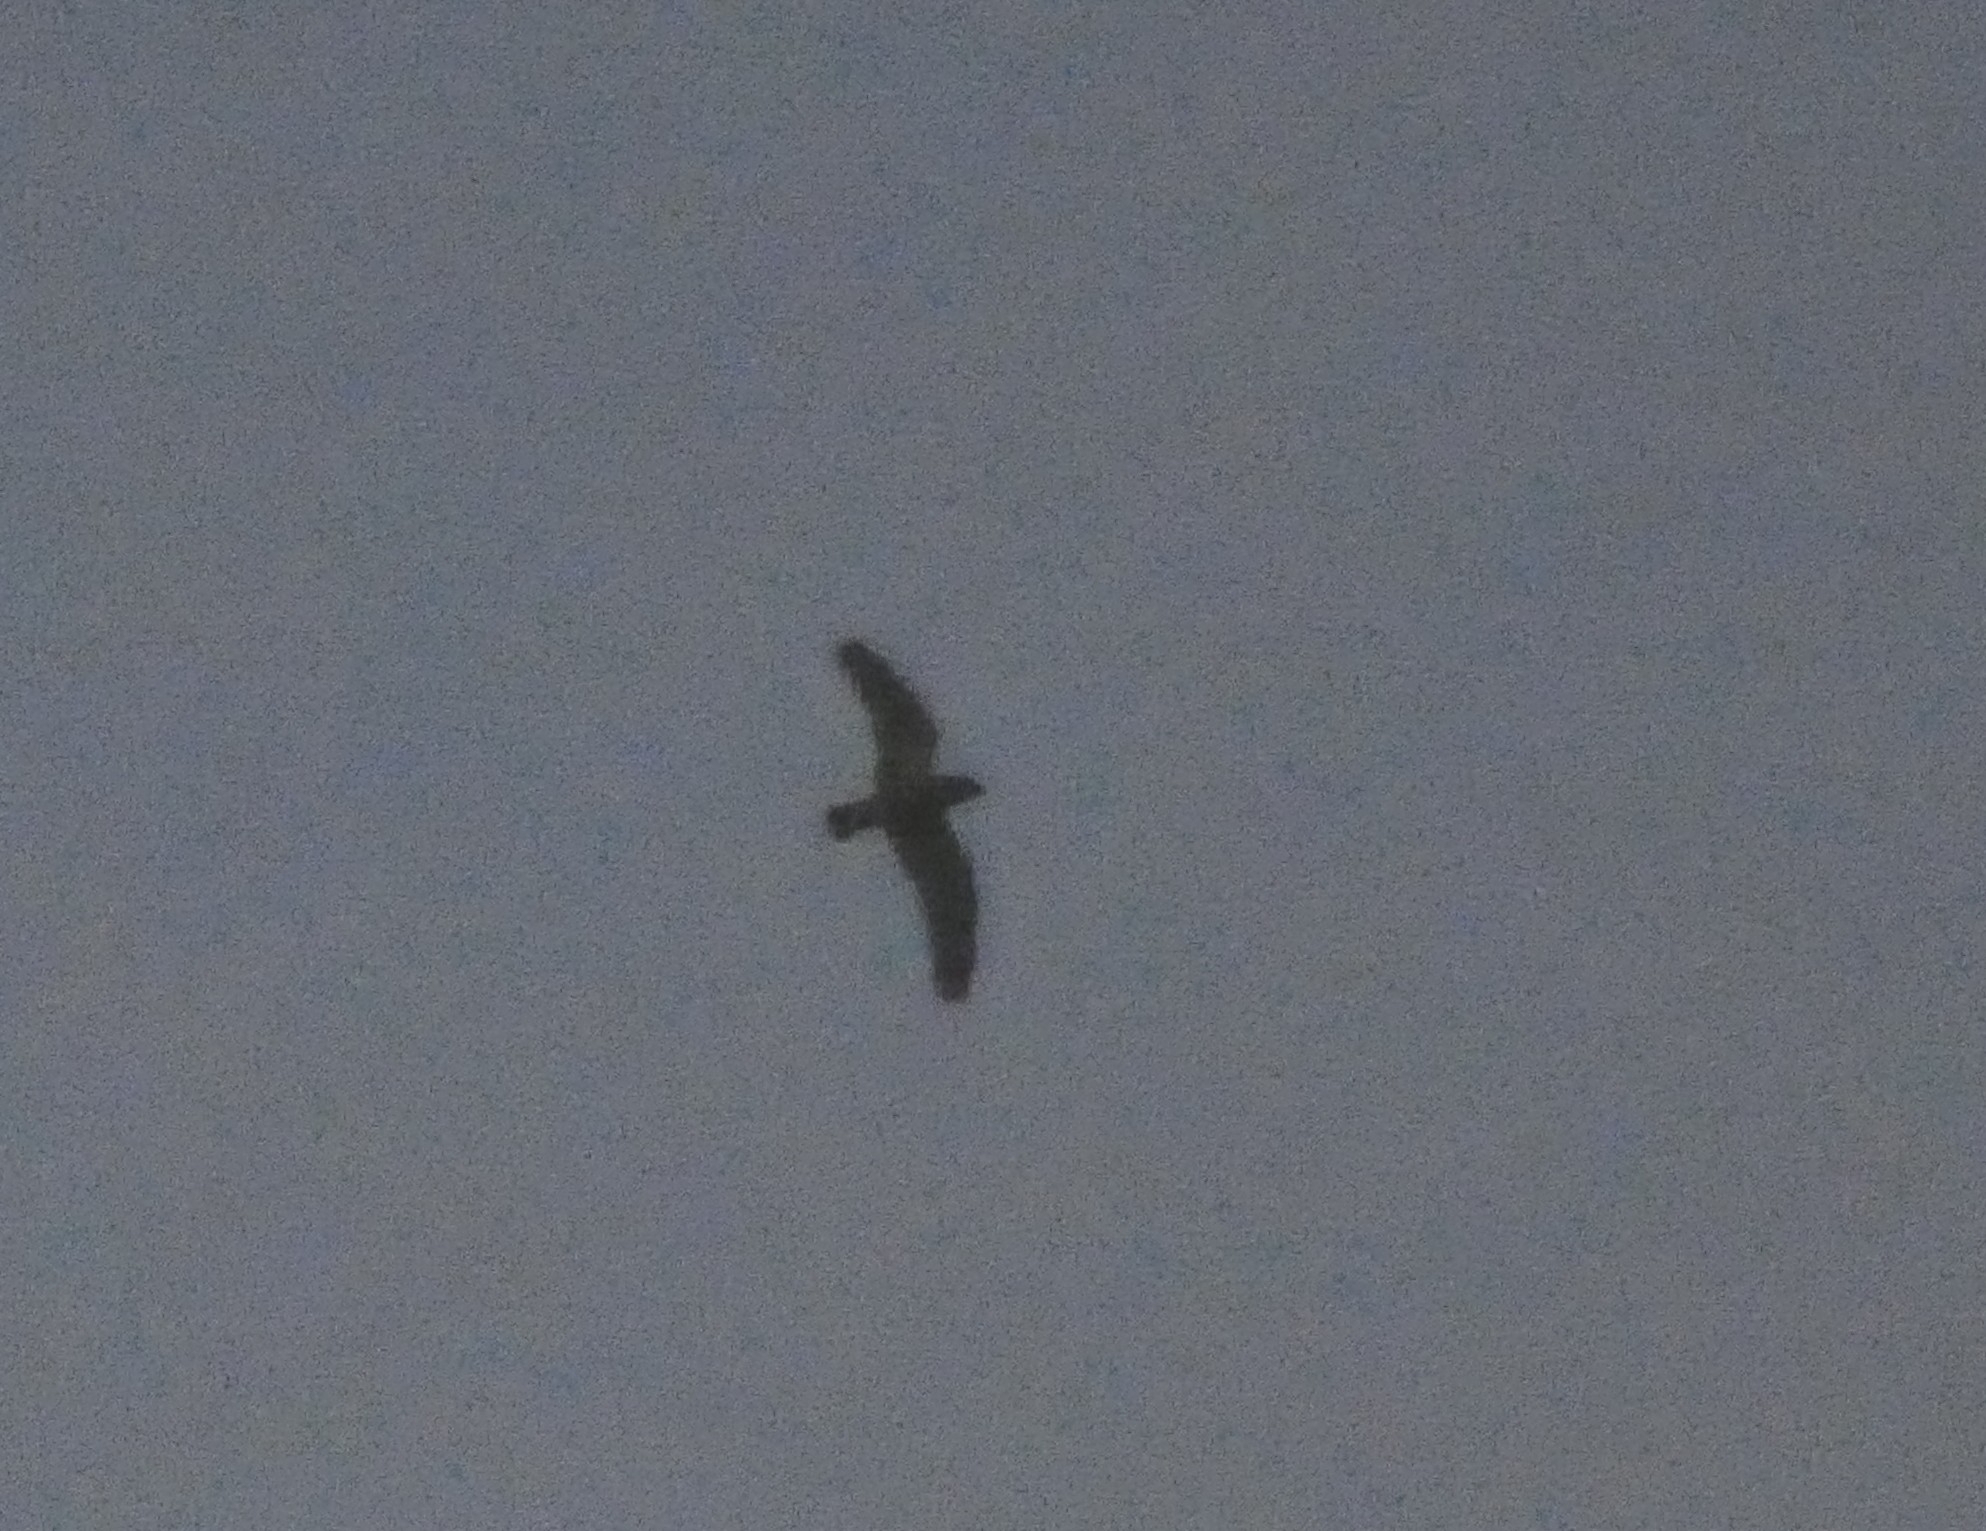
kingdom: Animalia
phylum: Chordata
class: Aves
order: Caprimulgiformes
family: Caprimulgidae
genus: Lurocalis
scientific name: Lurocalis semitorquatus
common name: Short-tailed nighthawk
